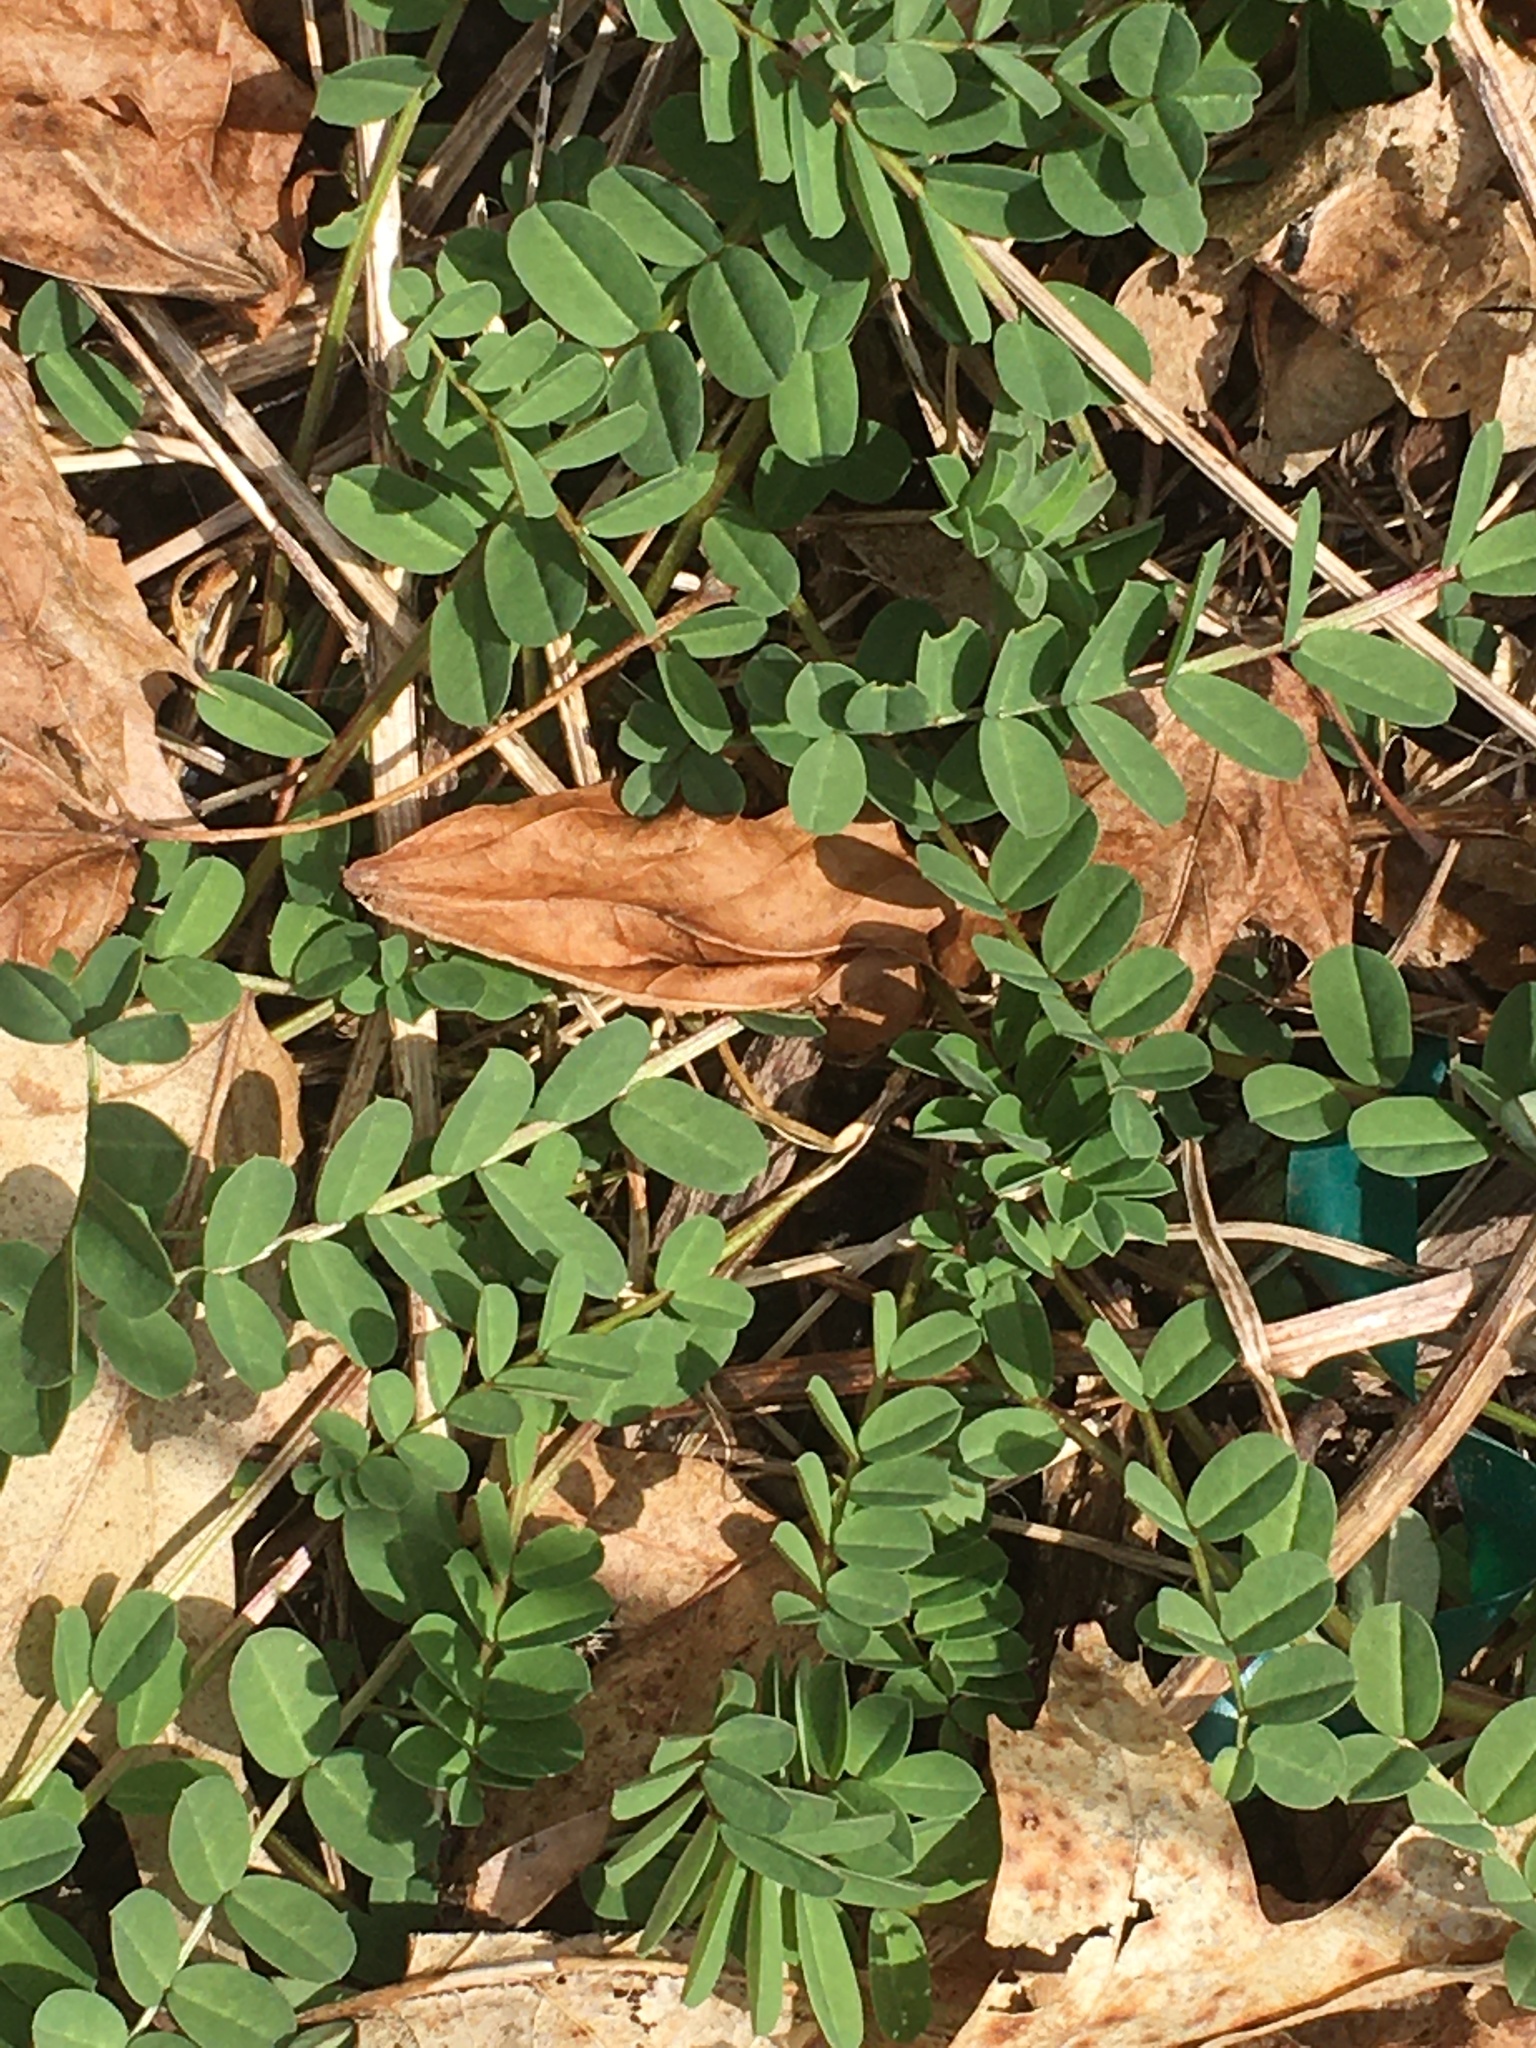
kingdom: Plantae
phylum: Tracheophyta
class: Magnoliopsida
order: Fabales
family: Fabaceae
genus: Coronilla
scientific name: Coronilla varia
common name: Crownvetch
